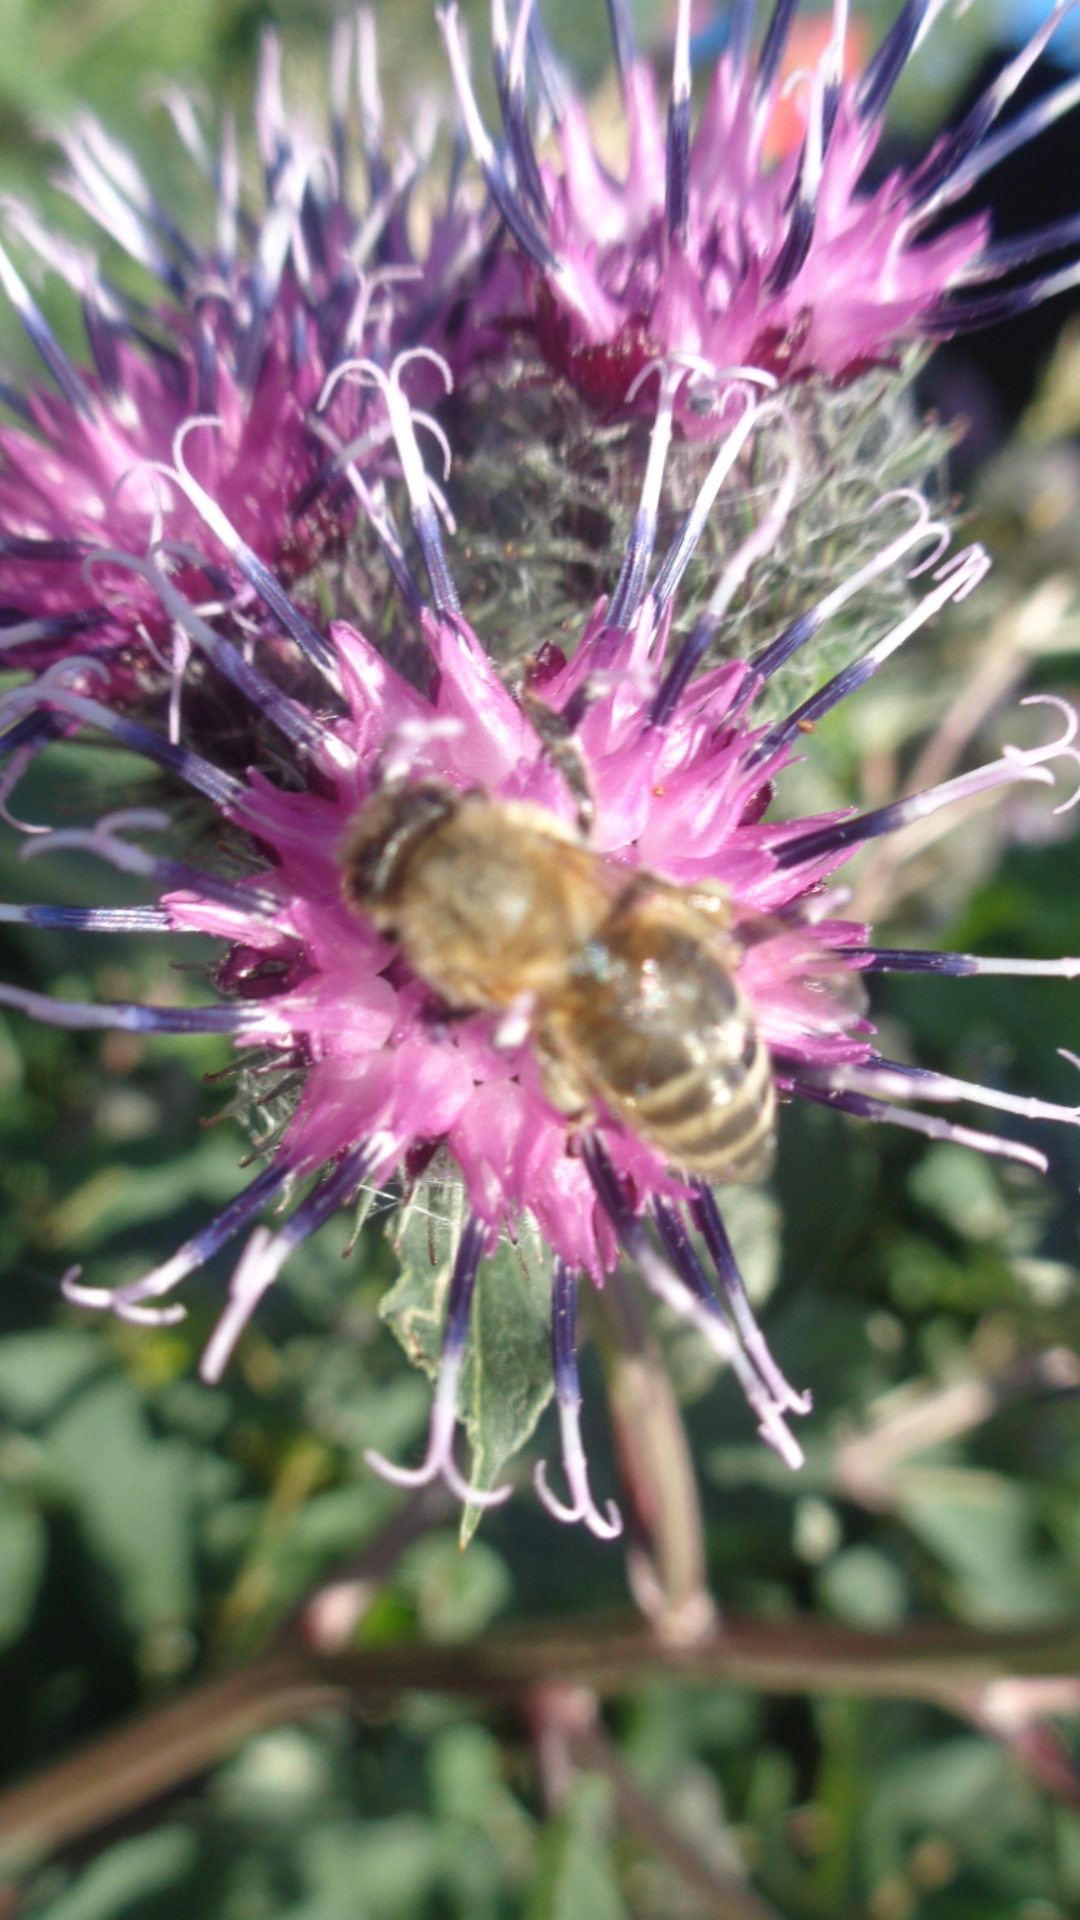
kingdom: Animalia
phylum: Arthropoda
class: Insecta
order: Hymenoptera
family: Apidae
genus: Apis
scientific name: Apis mellifera
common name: Honey bee
